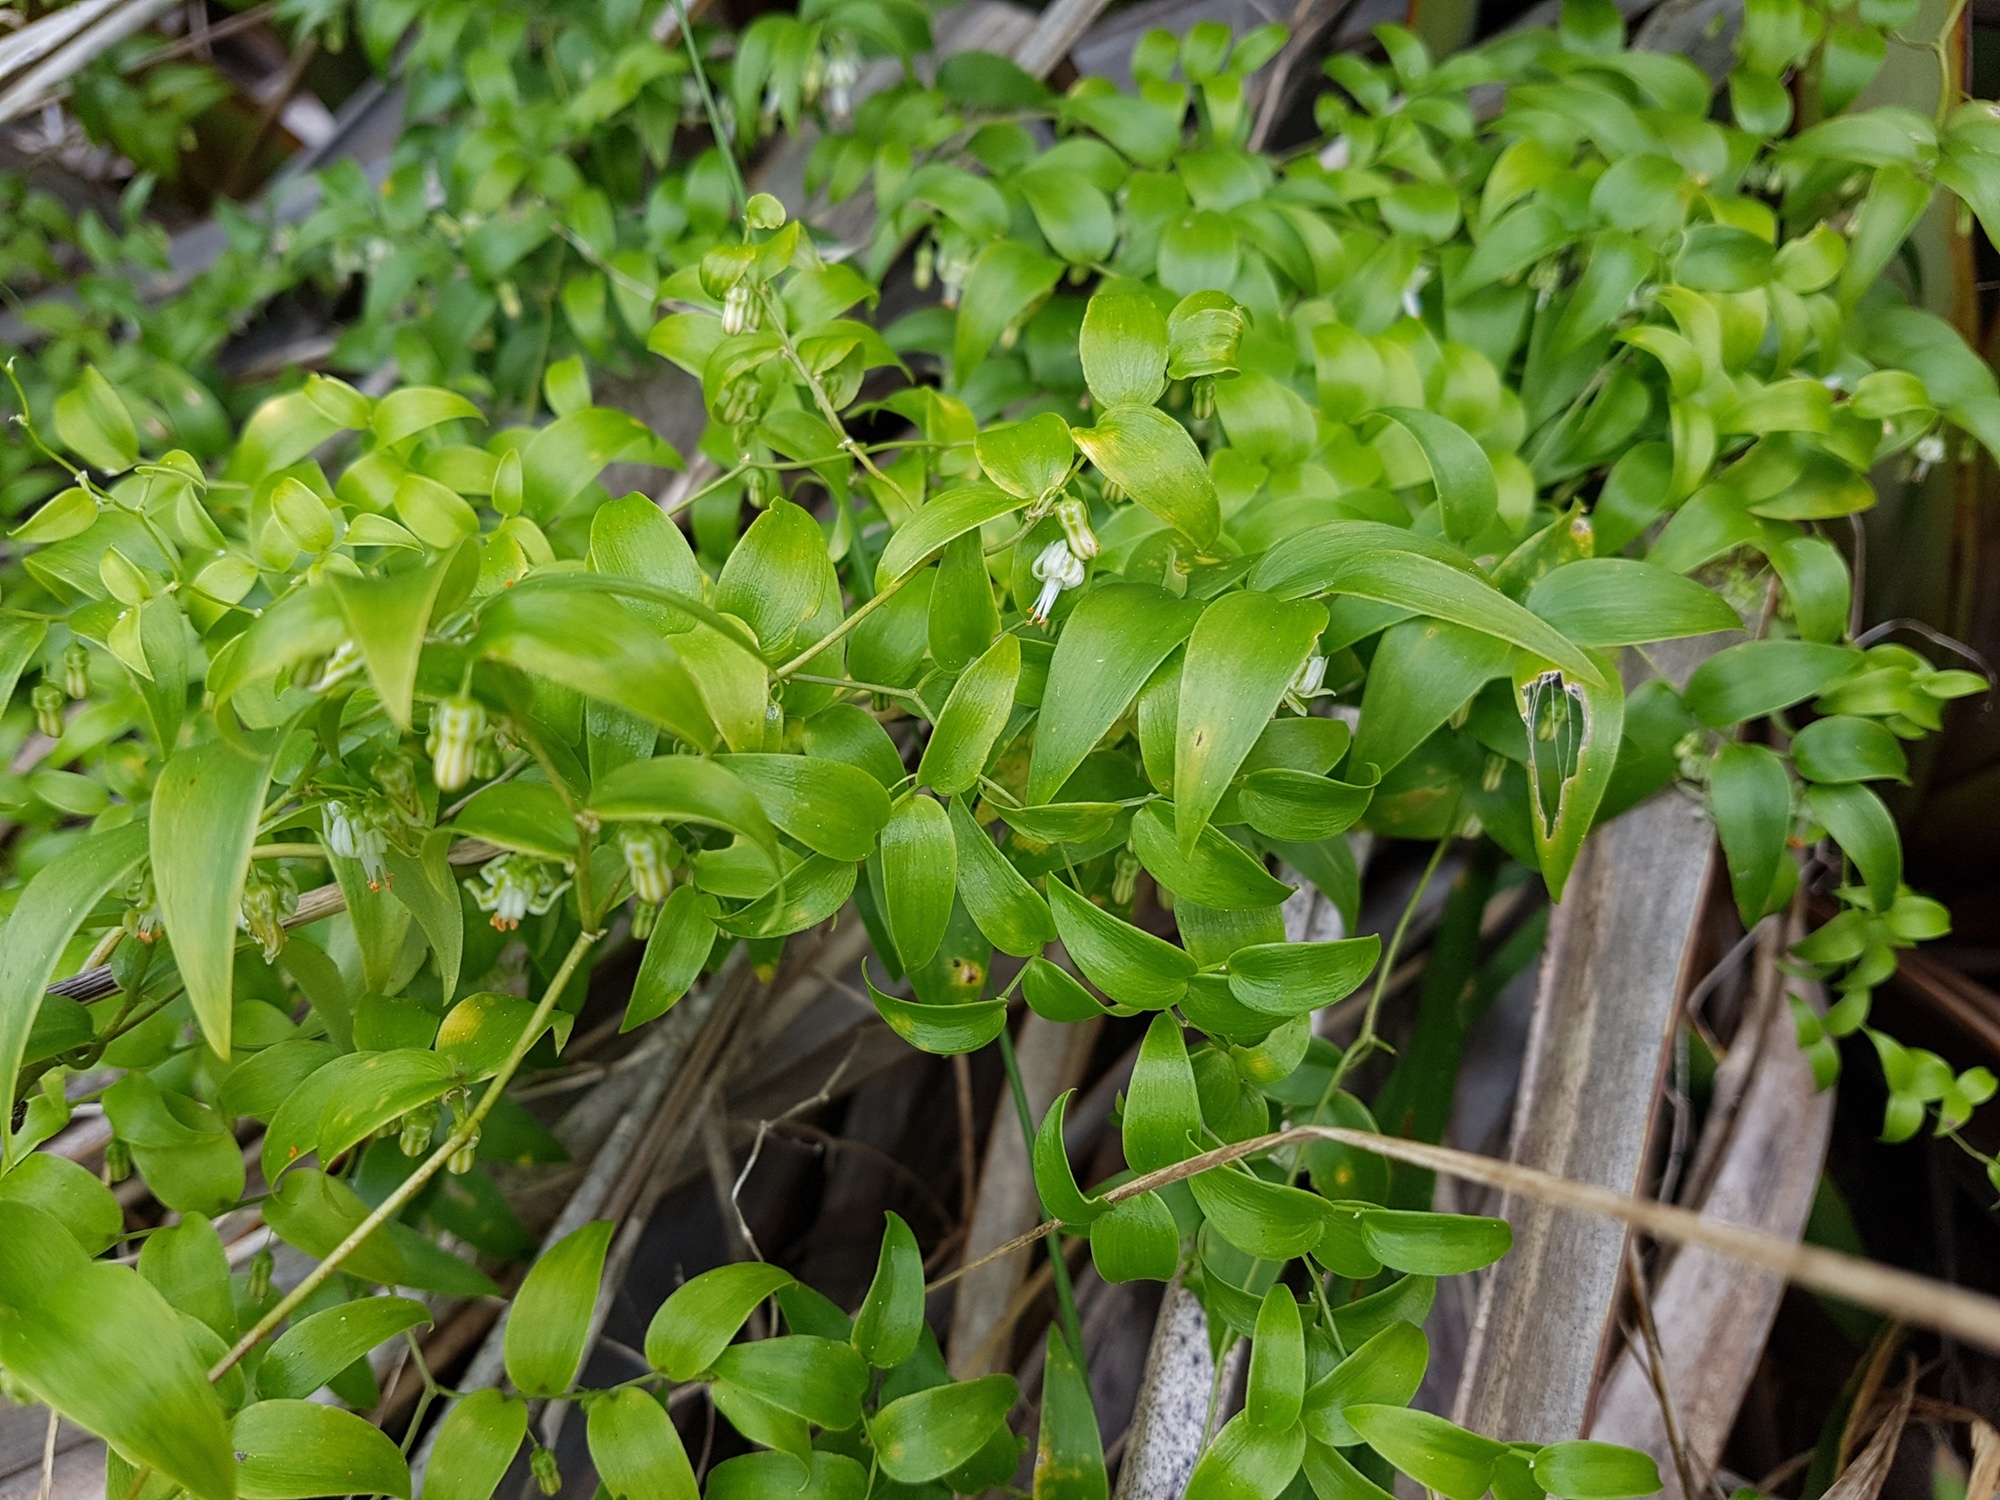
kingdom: Plantae
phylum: Tracheophyta
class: Liliopsida
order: Asparagales
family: Asparagaceae
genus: Asparagus
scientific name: Asparagus asparagoides
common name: African asparagus fern
